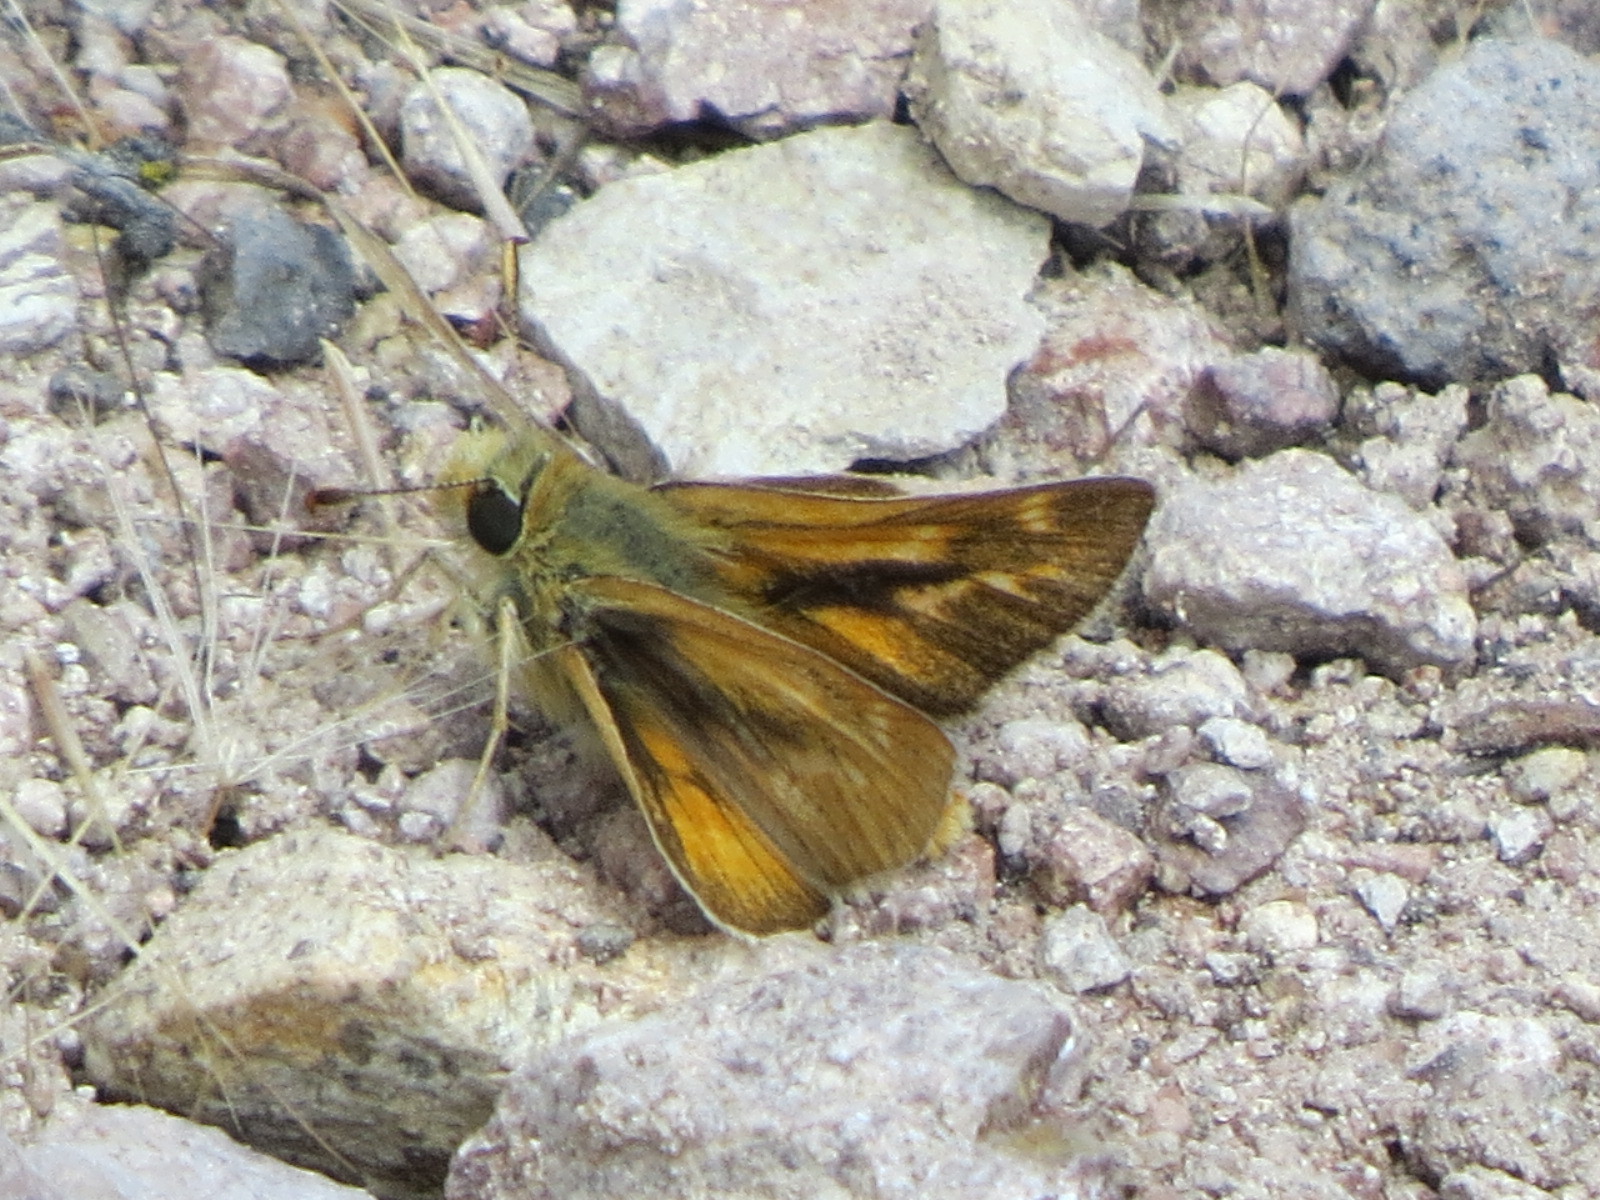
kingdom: Animalia
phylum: Arthropoda
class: Insecta
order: Lepidoptera
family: Hesperiidae
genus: Ochlodes
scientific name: Ochlodes agricola
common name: Rural skipper
